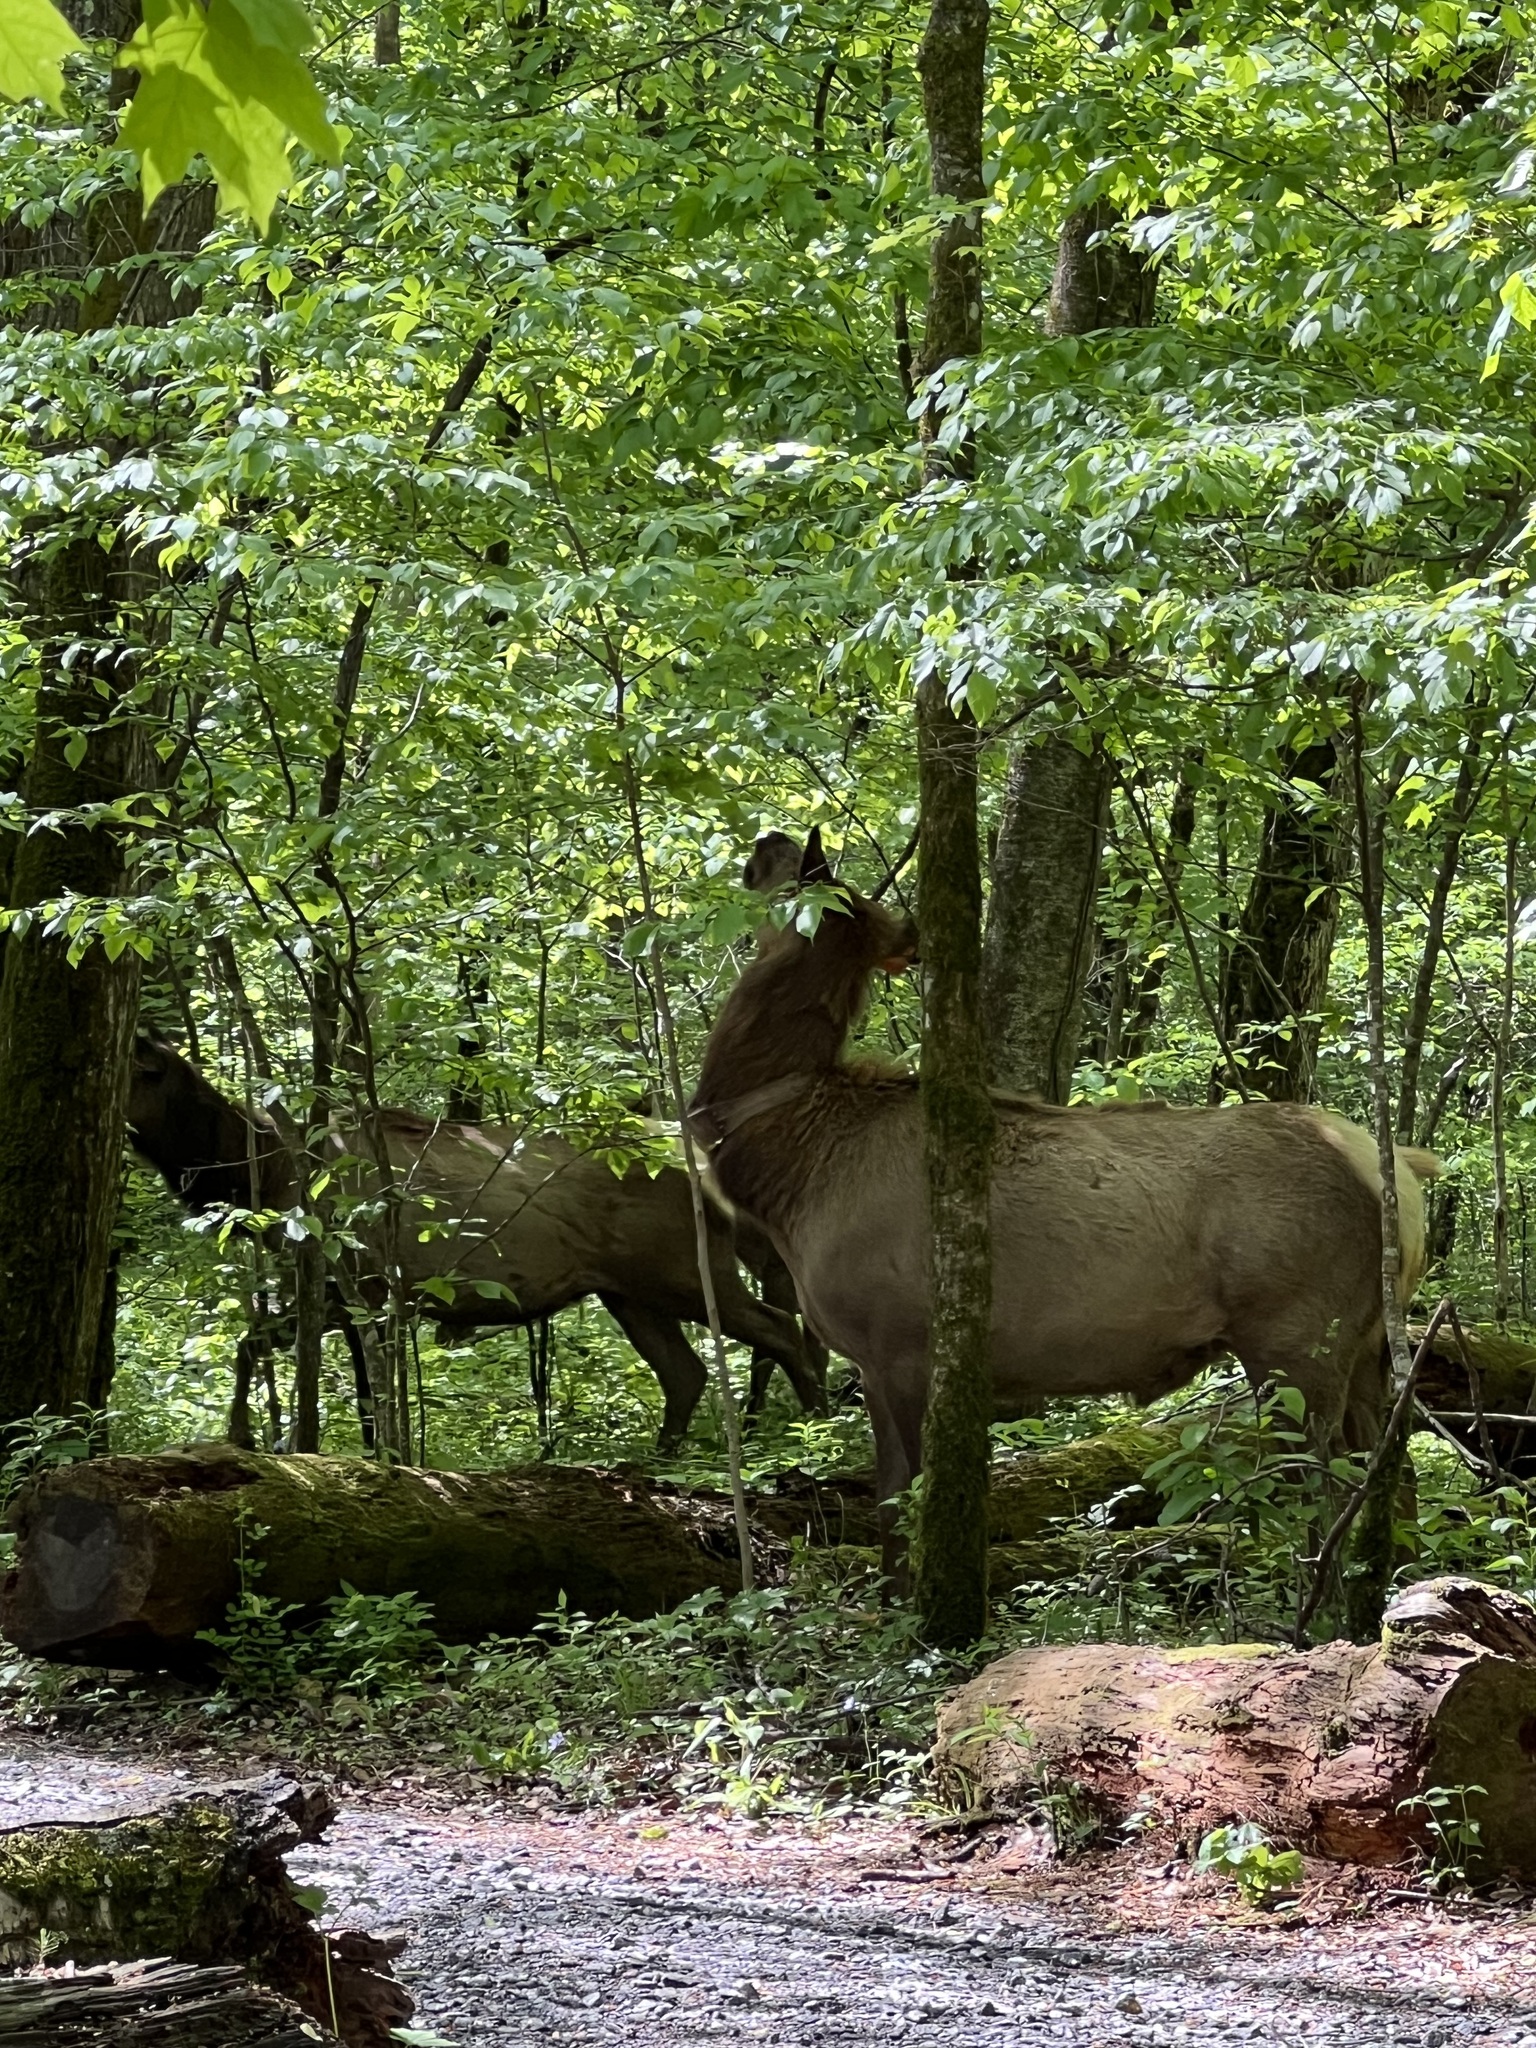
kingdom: Animalia
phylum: Chordata
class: Mammalia
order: Artiodactyla
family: Cervidae
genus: Cervus
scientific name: Cervus elaphus
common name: Red deer
